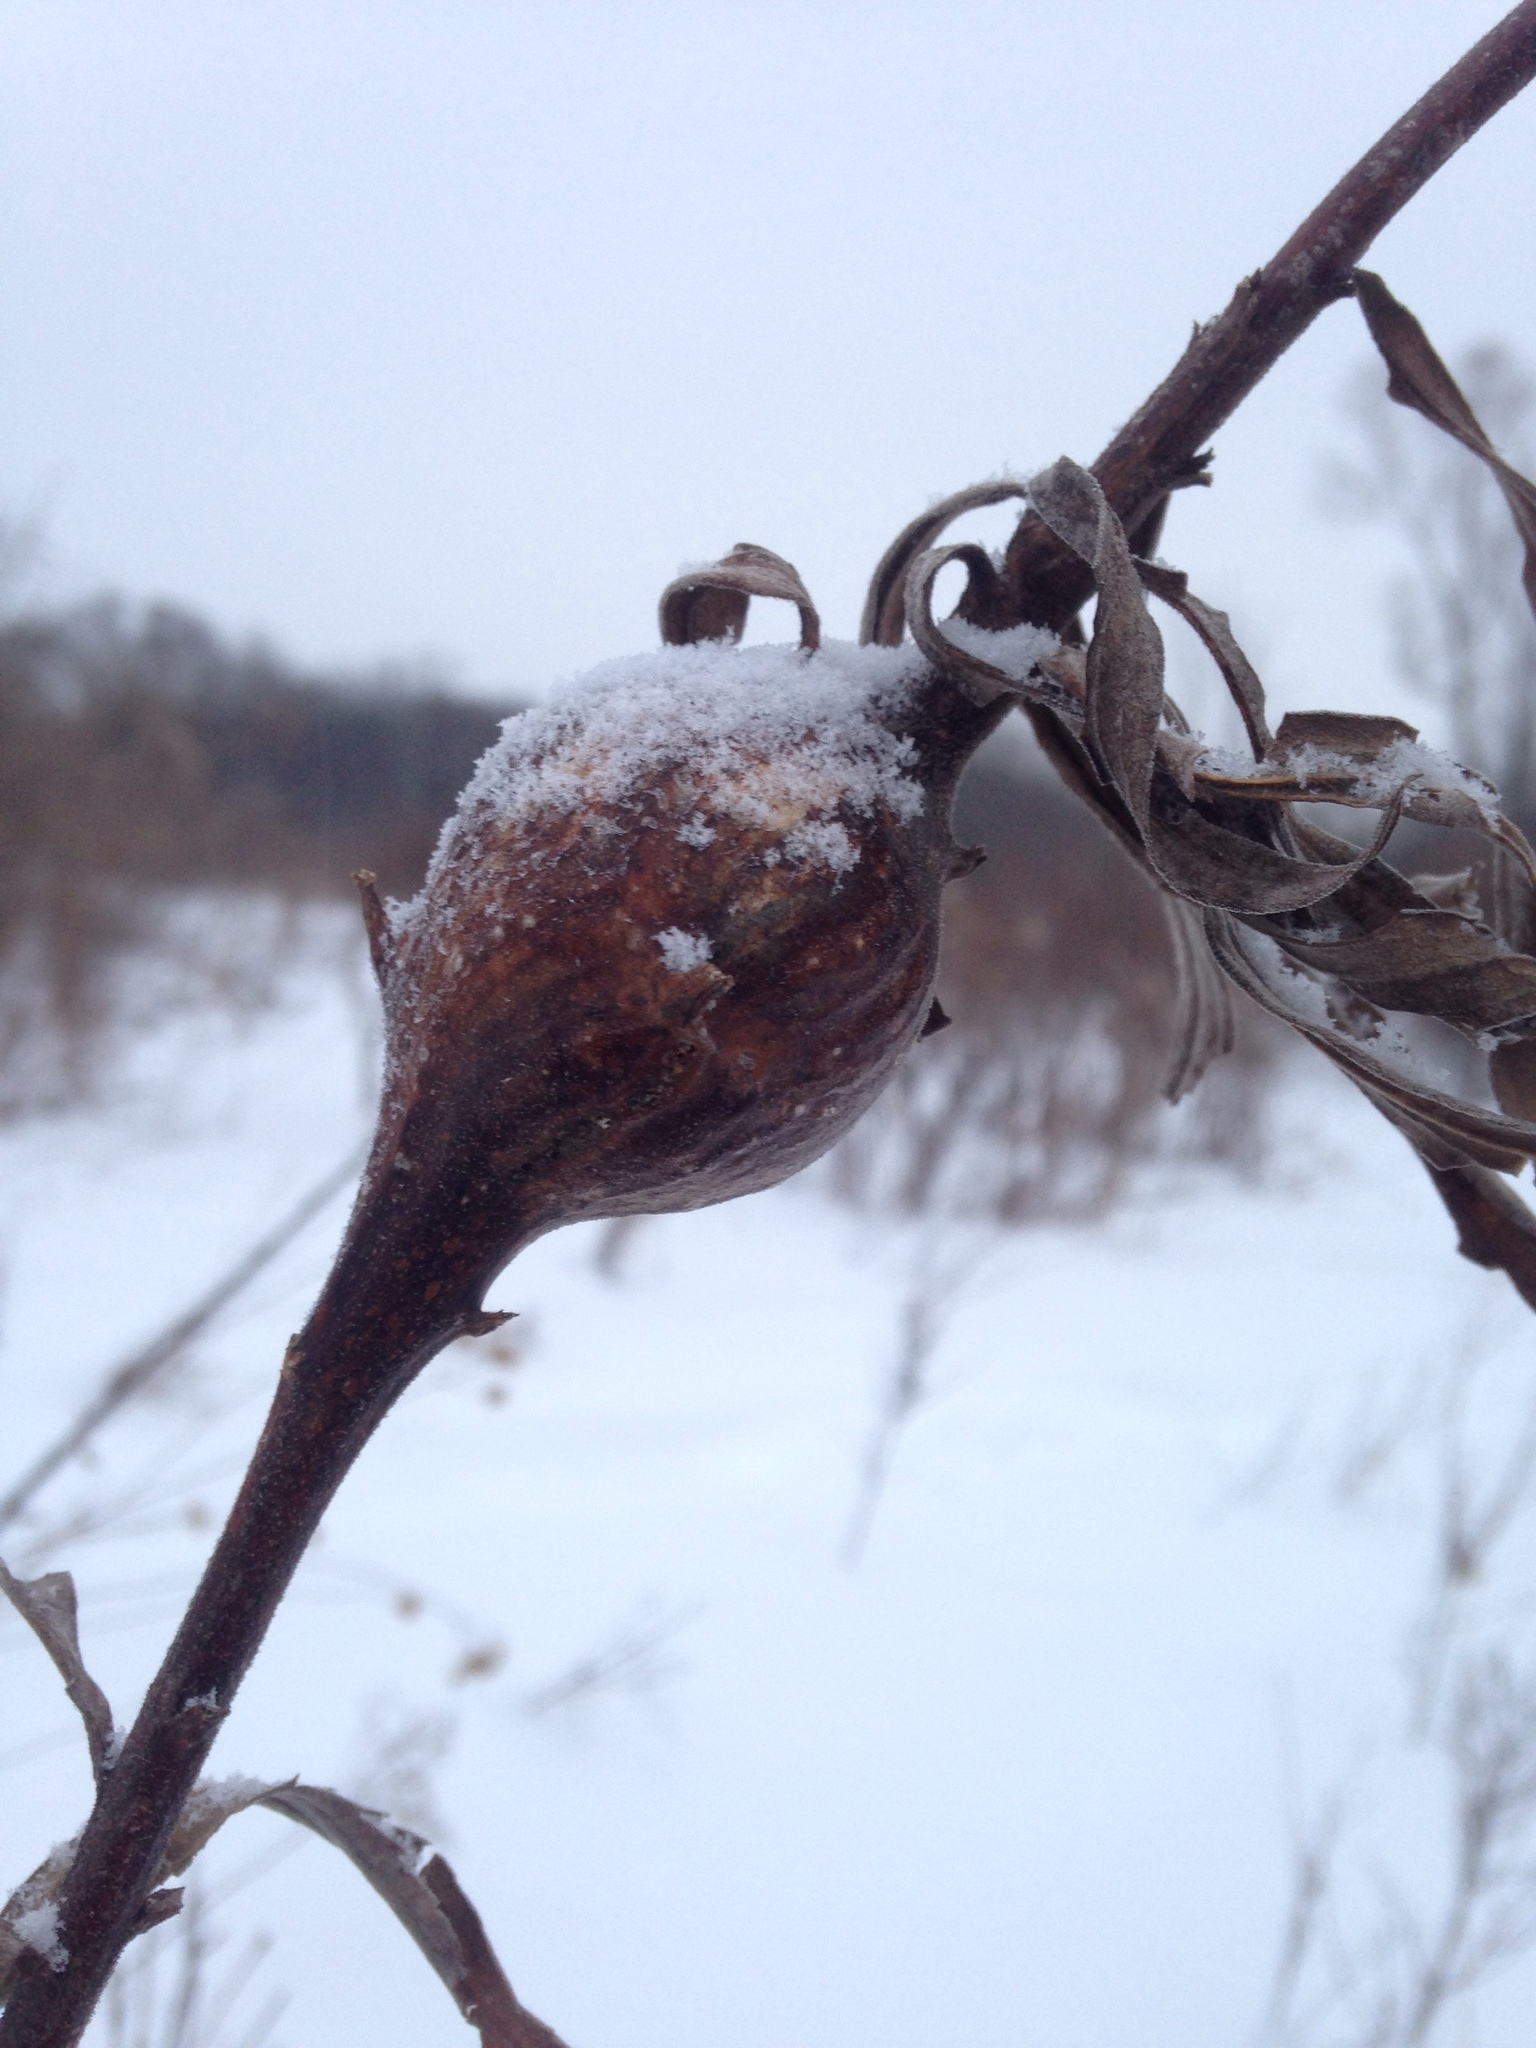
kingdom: Animalia
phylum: Arthropoda
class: Insecta
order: Diptera
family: Tephritidae
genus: Eurosta
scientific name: Eurosta solidaginis
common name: Goldenrod gall fly
